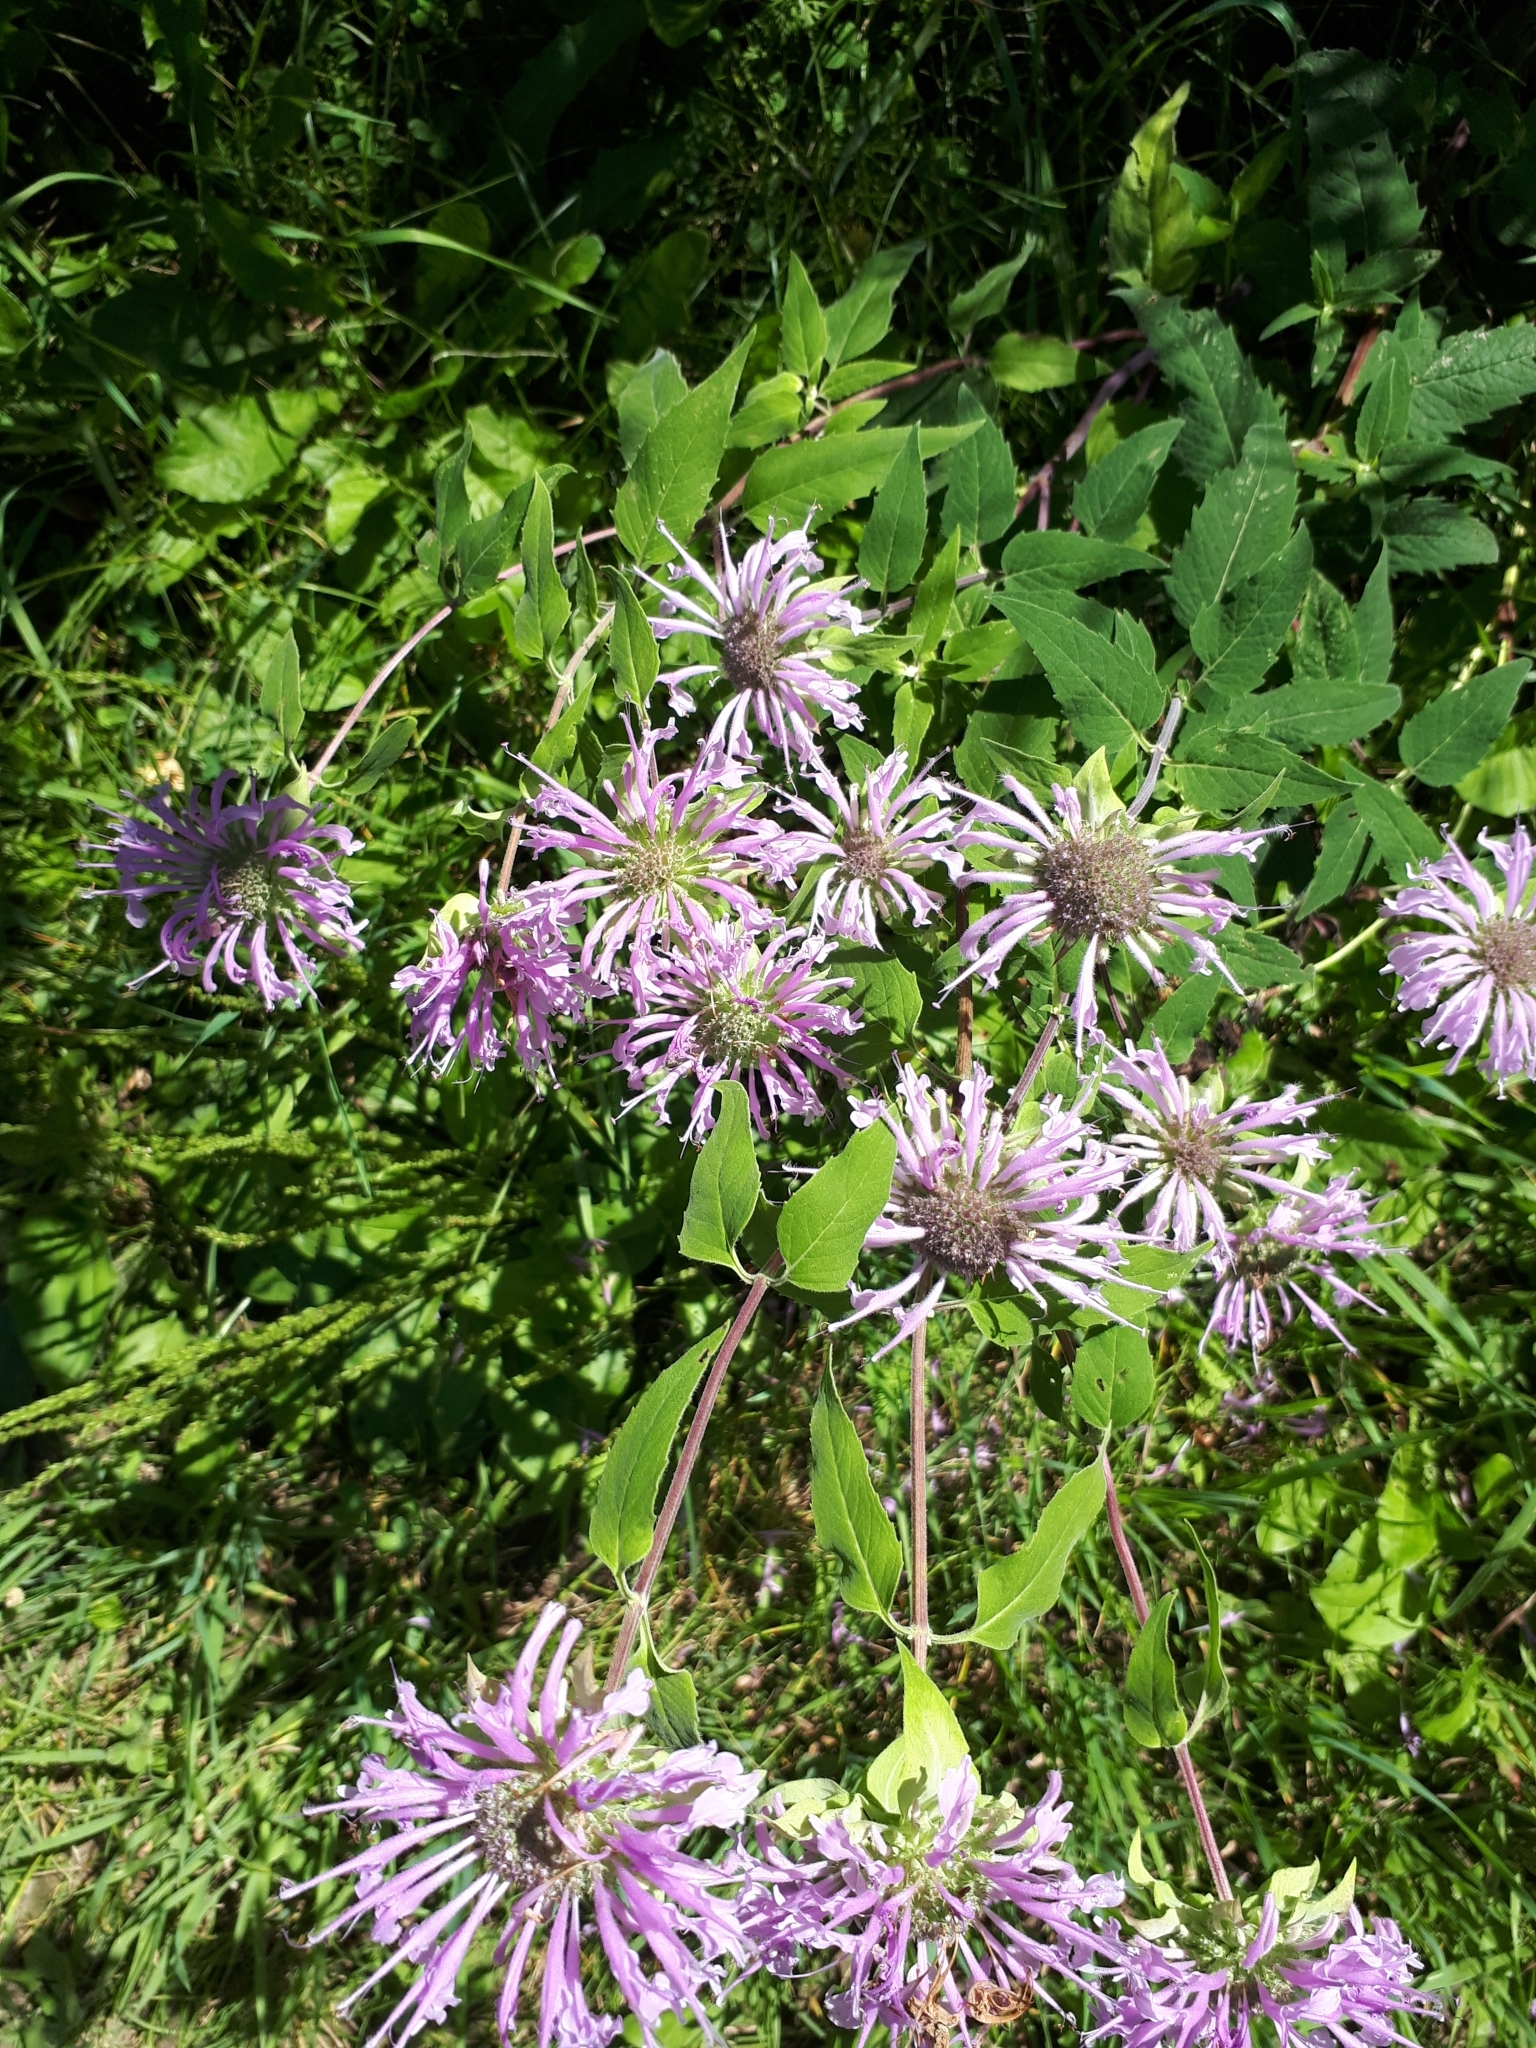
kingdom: Plantae
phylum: Tracheophyta
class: Magnoliopsida
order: Lamiales
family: Lamiaceae
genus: Monarda
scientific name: Monarda fistulosa
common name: Purple beebalm
